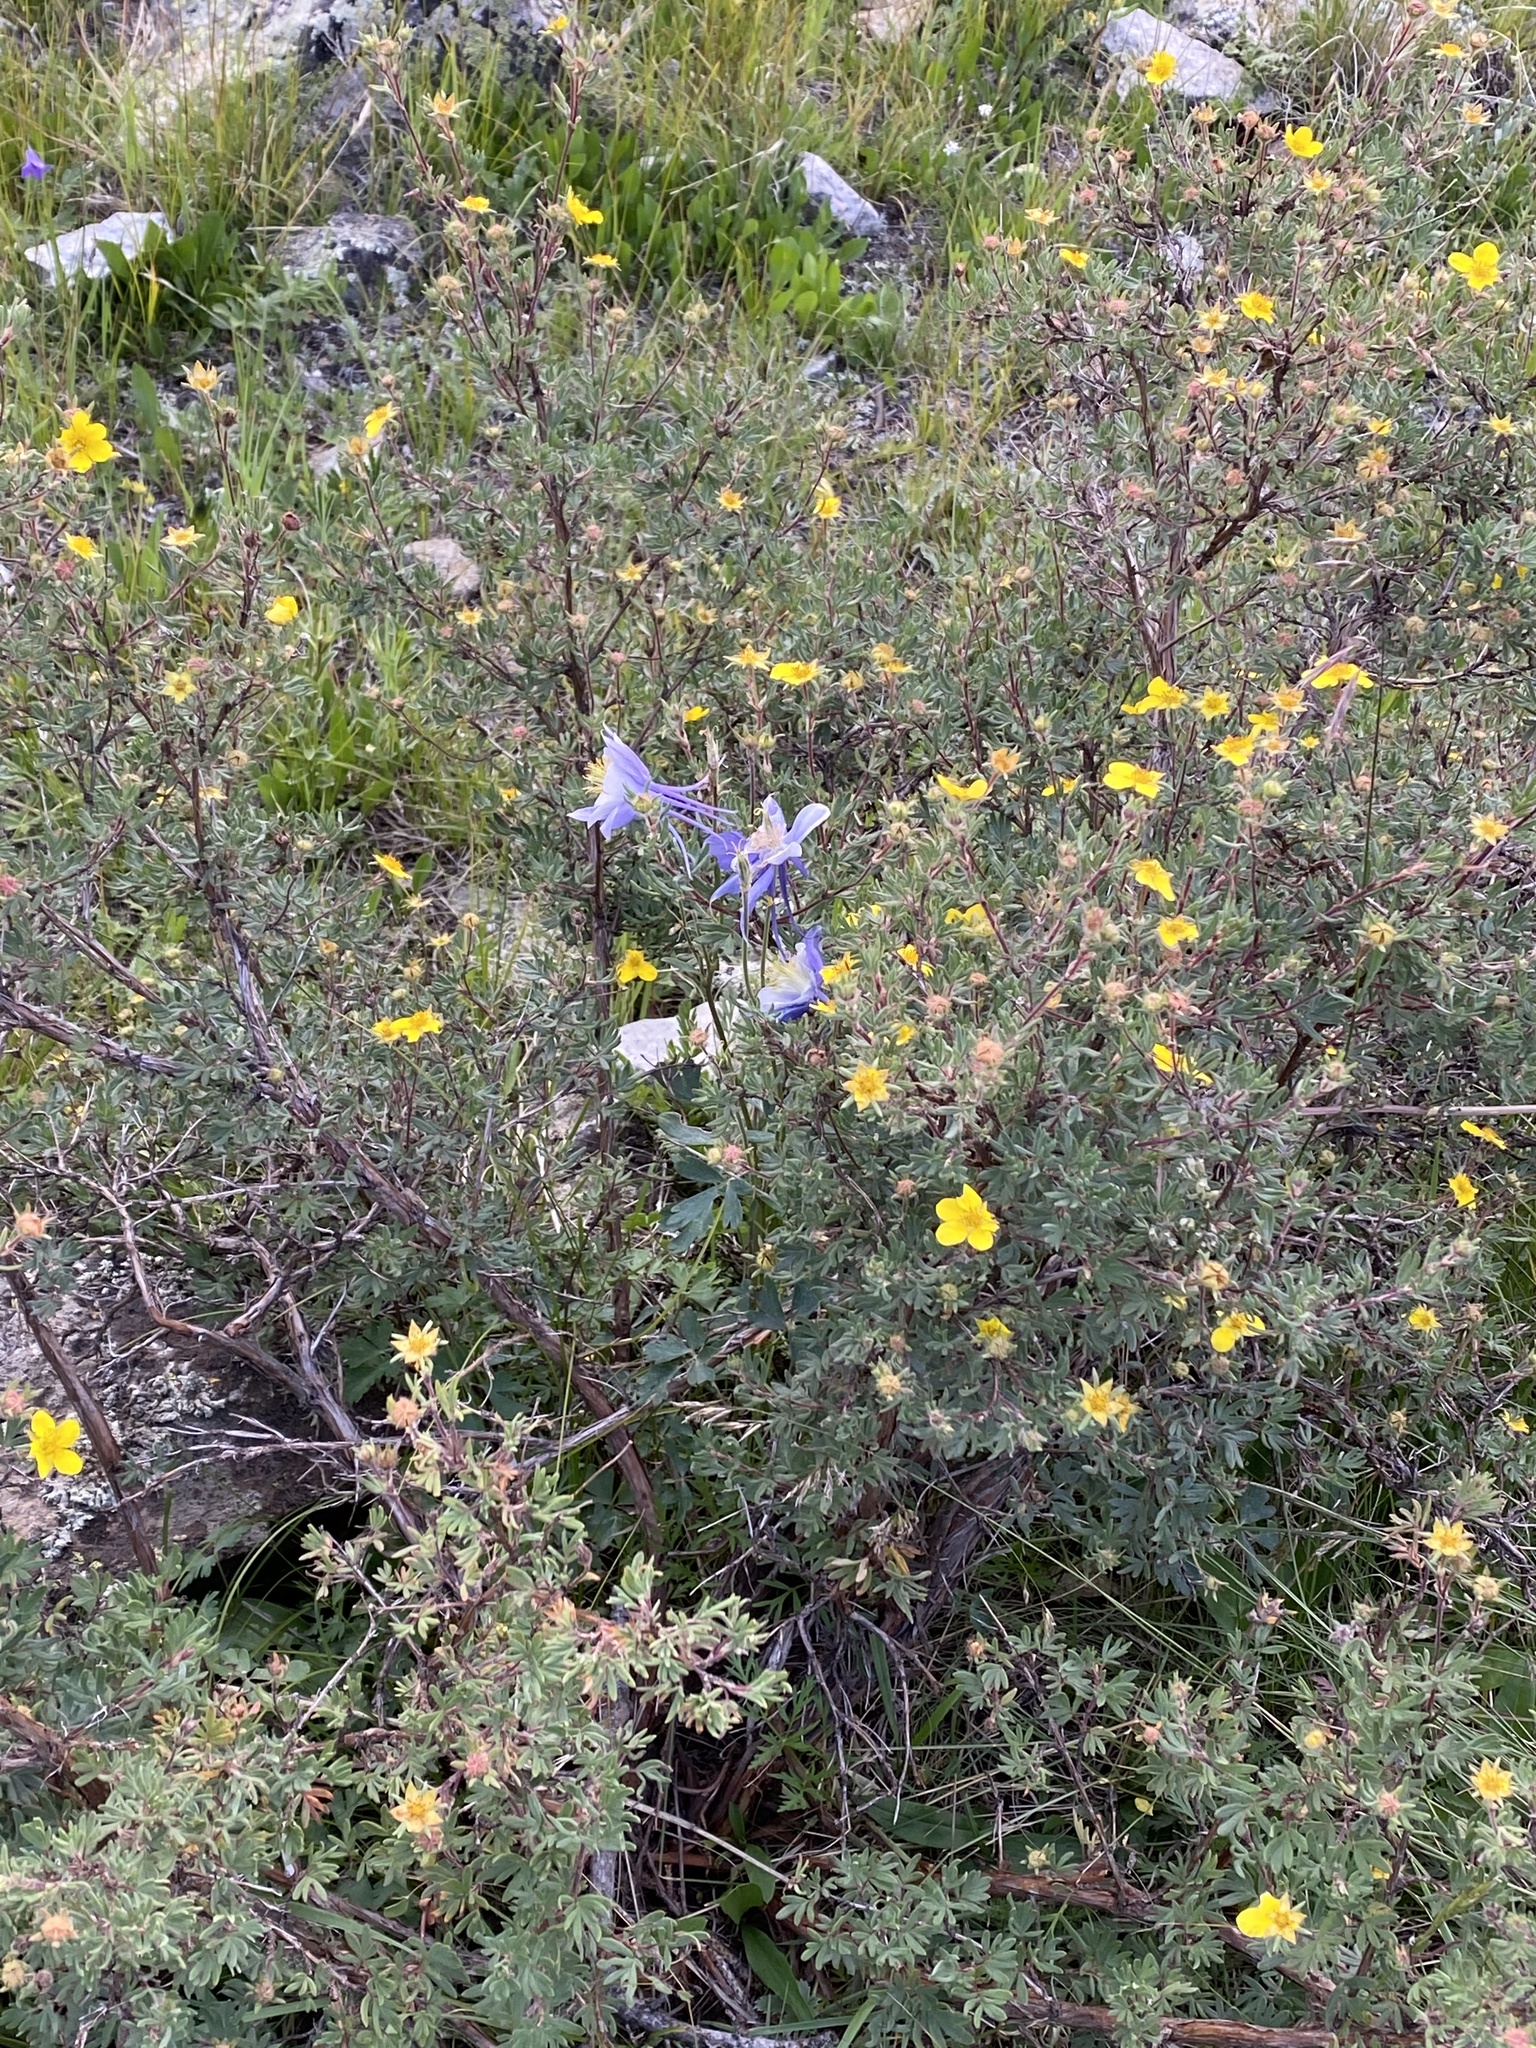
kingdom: Plantae
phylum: Tracheophyta
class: Magnoliopsida
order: Rosales
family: Rosaceae
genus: Dasiphora
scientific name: Dasiphora fruticosa
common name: Shrubby cinquefoil
